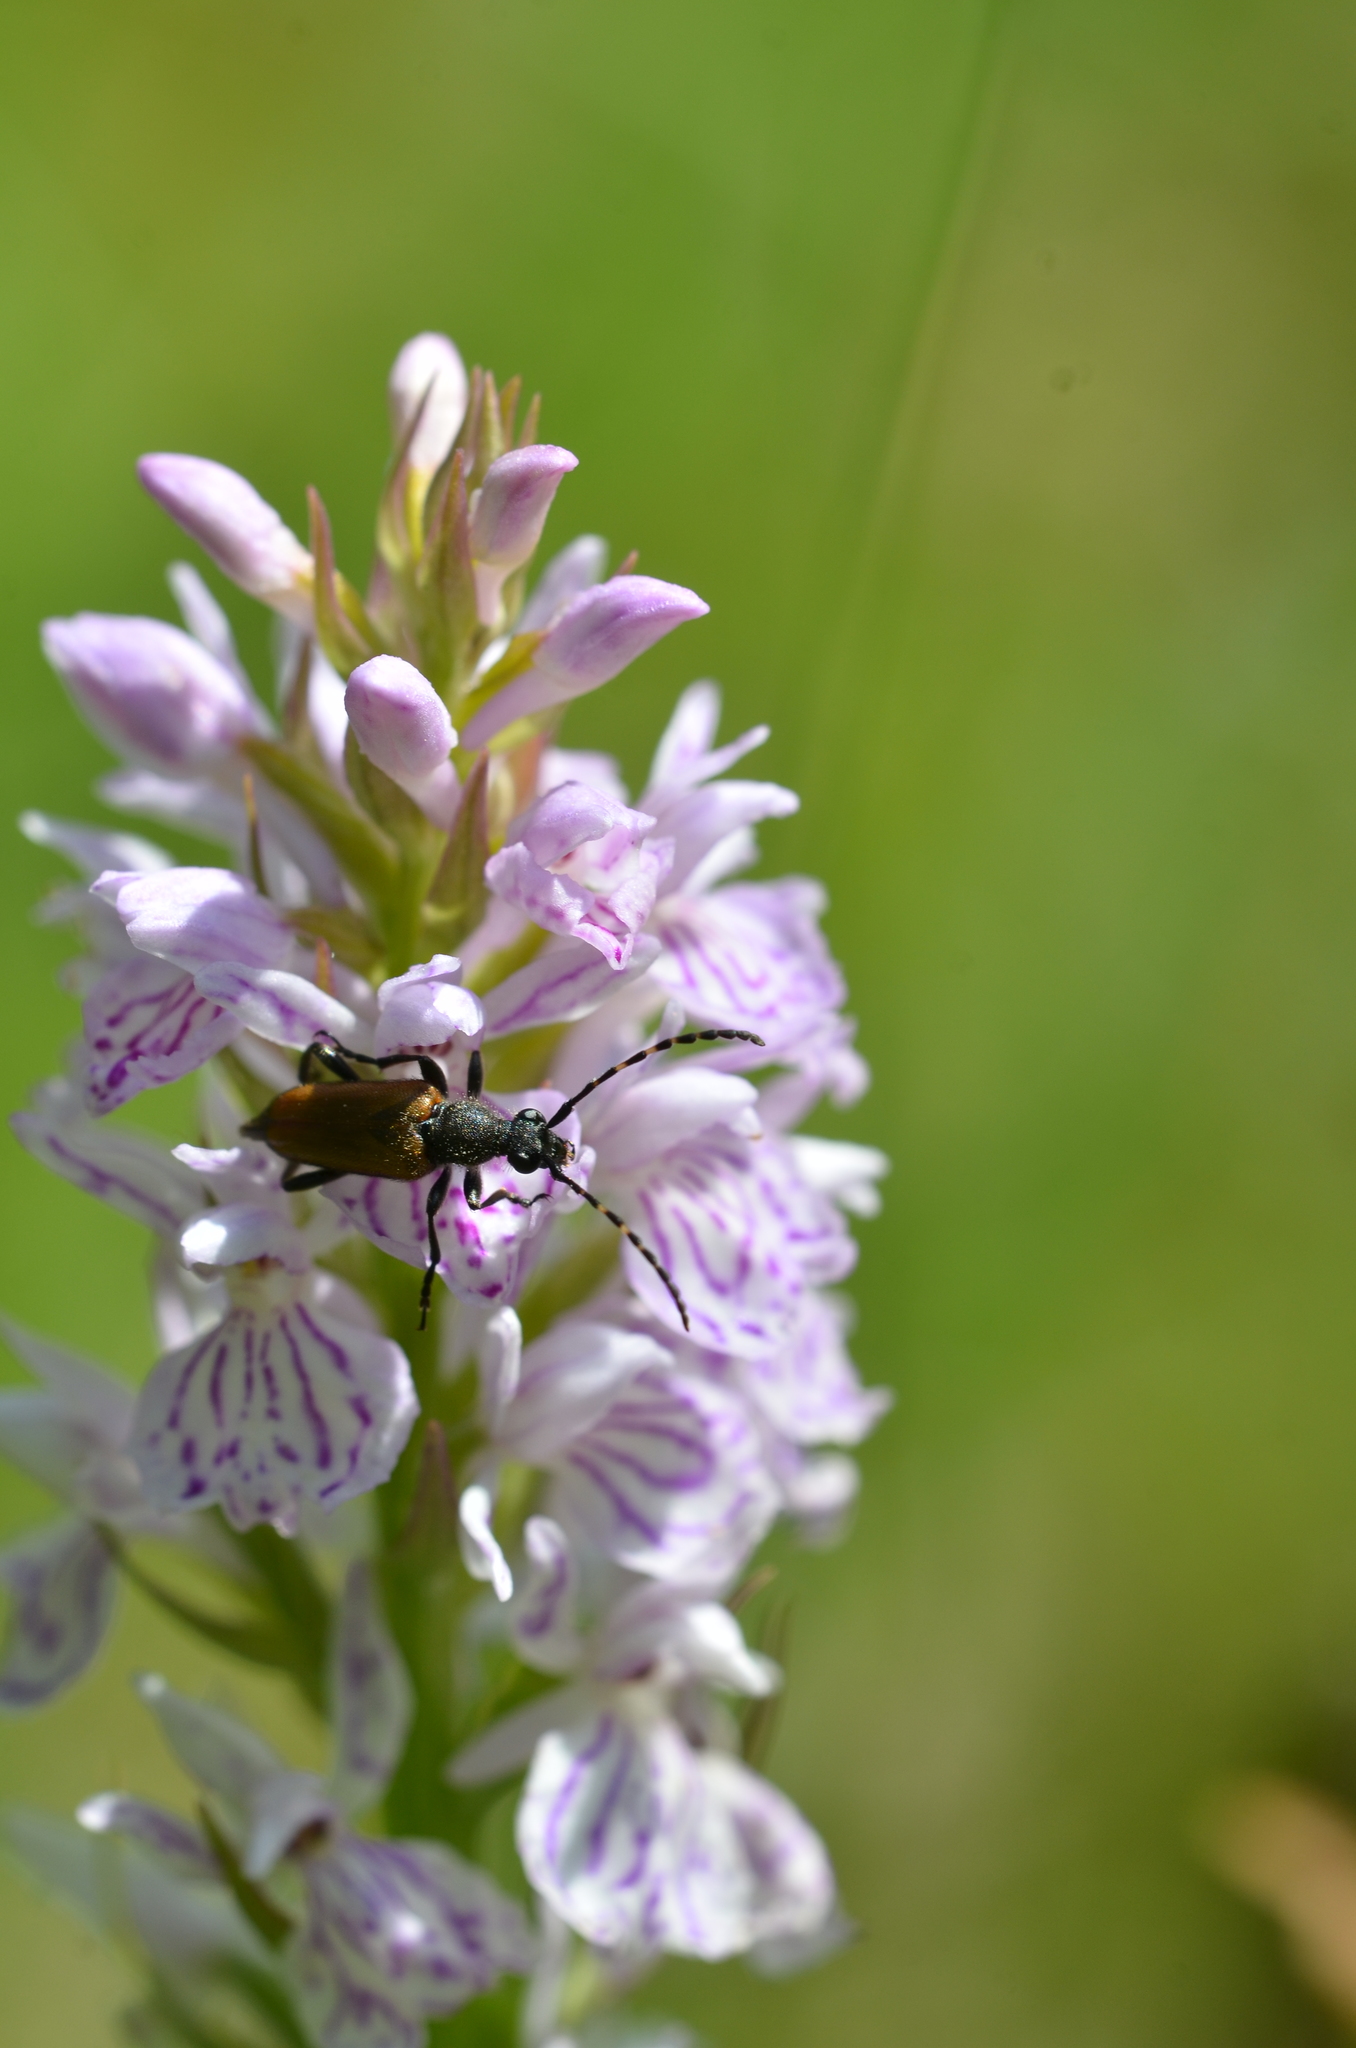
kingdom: Animalia
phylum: Arthropoda
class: Insecta
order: Coleoptera
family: Cerambycidae
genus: Paracorymbia
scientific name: Paracorymbia maculicornis
